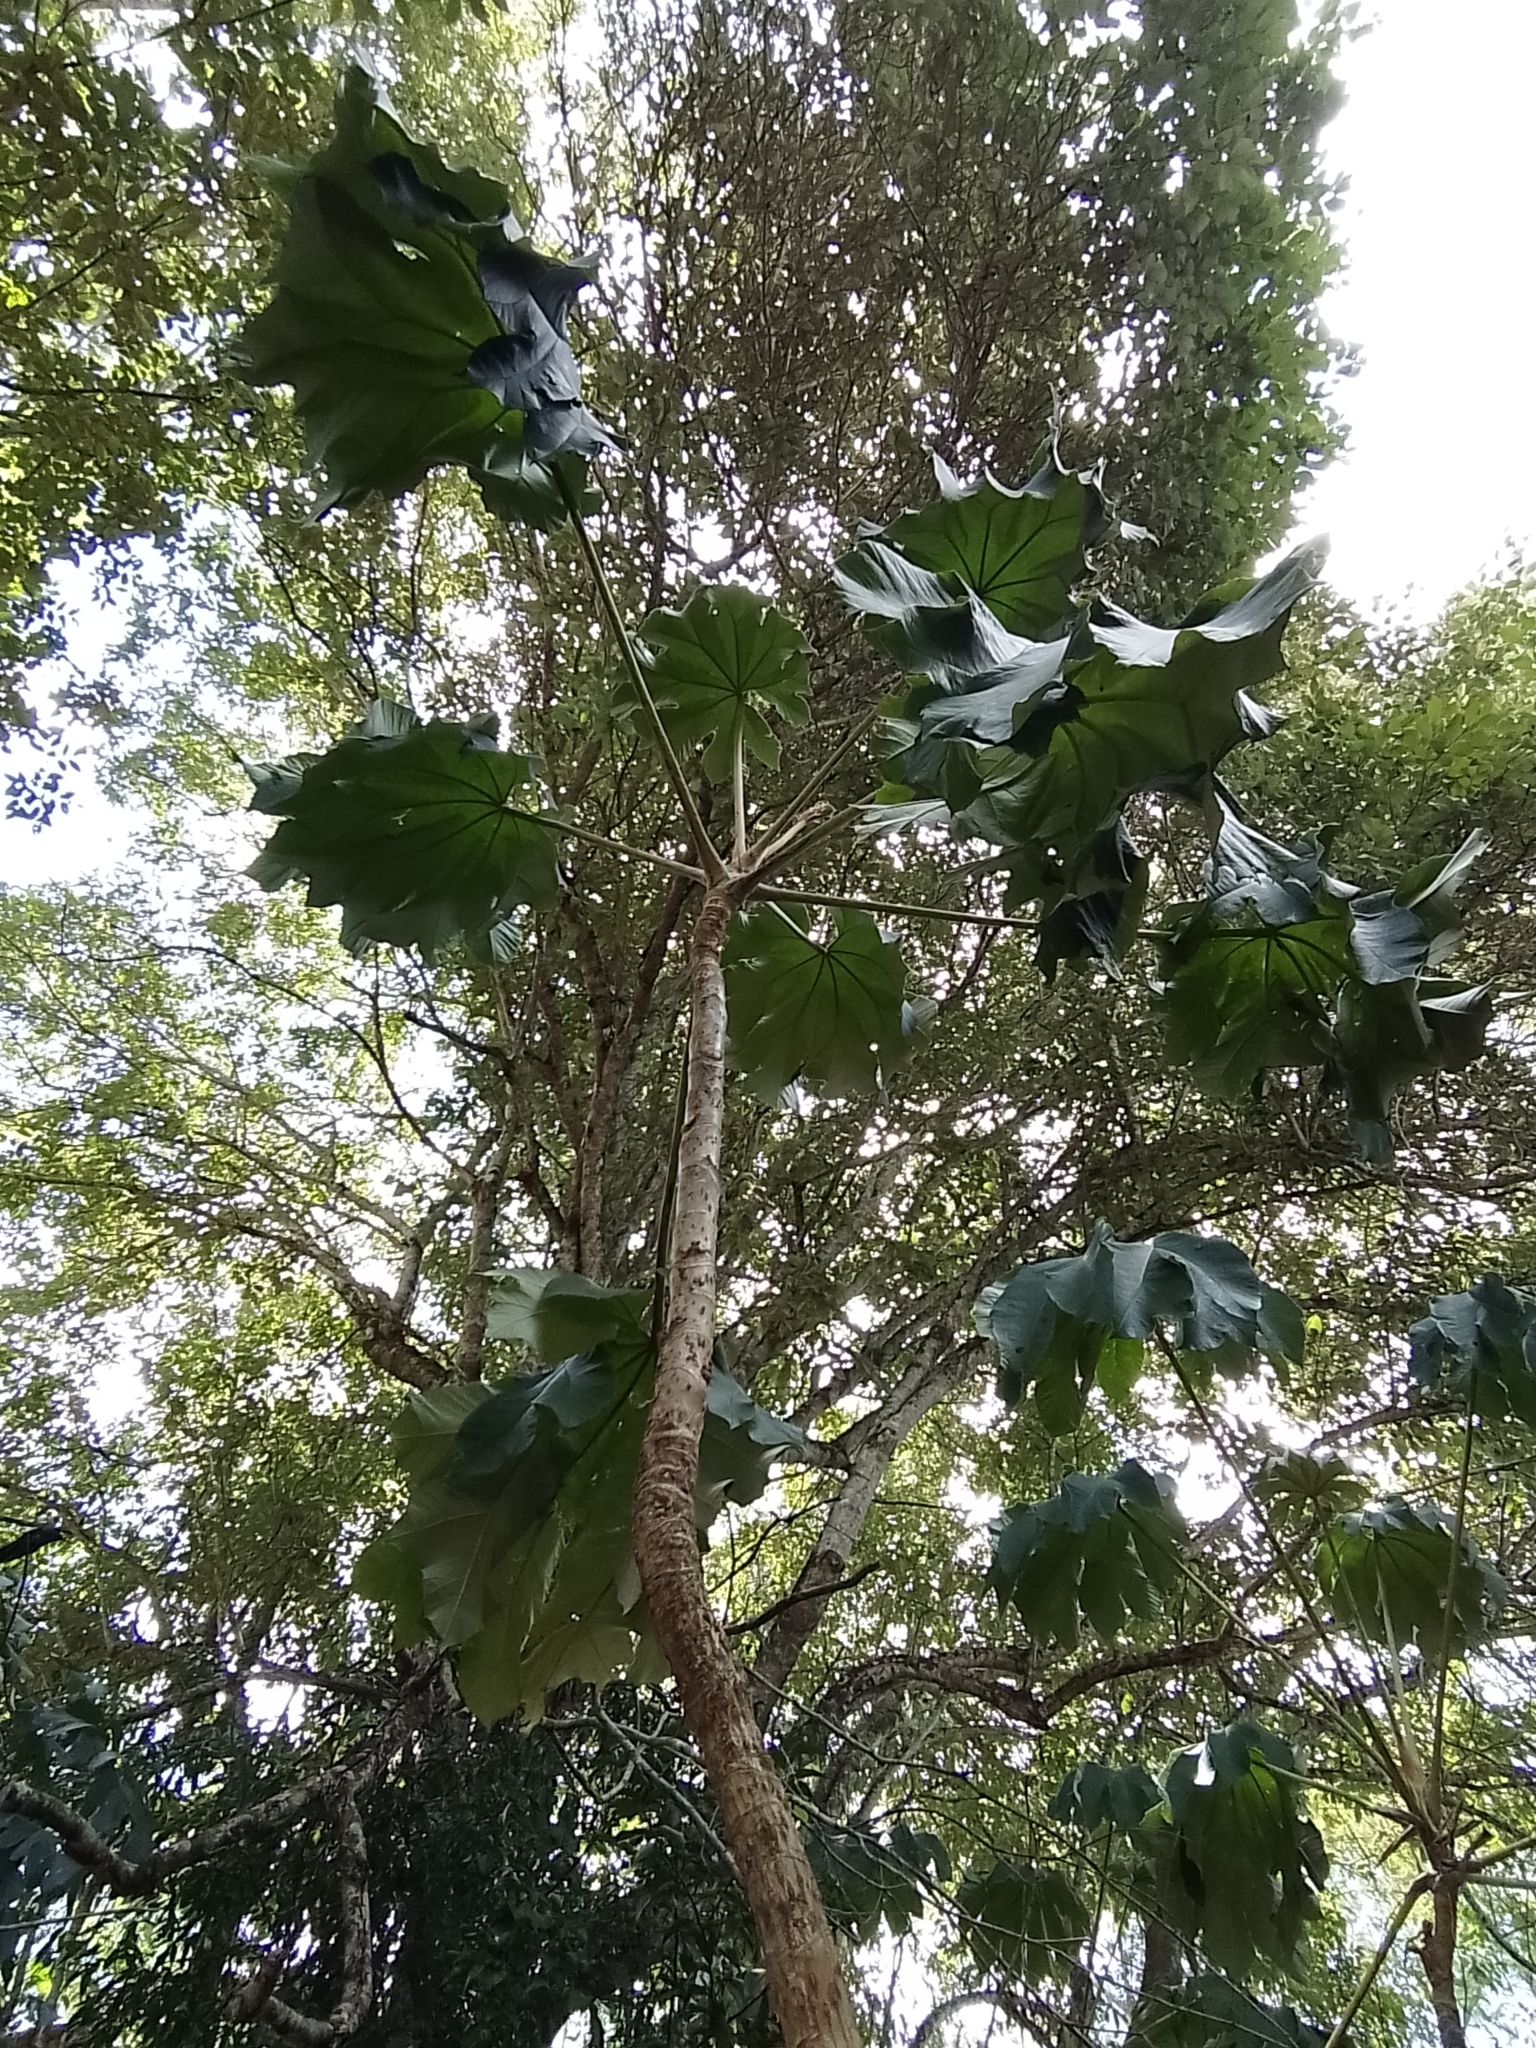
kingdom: Plantae
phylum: Tracheophyta
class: Magnoliopsida
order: Rosales
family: Urticaceae
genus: Cecropia
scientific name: Cecropia pachystachya
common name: Ambay pumpwood
